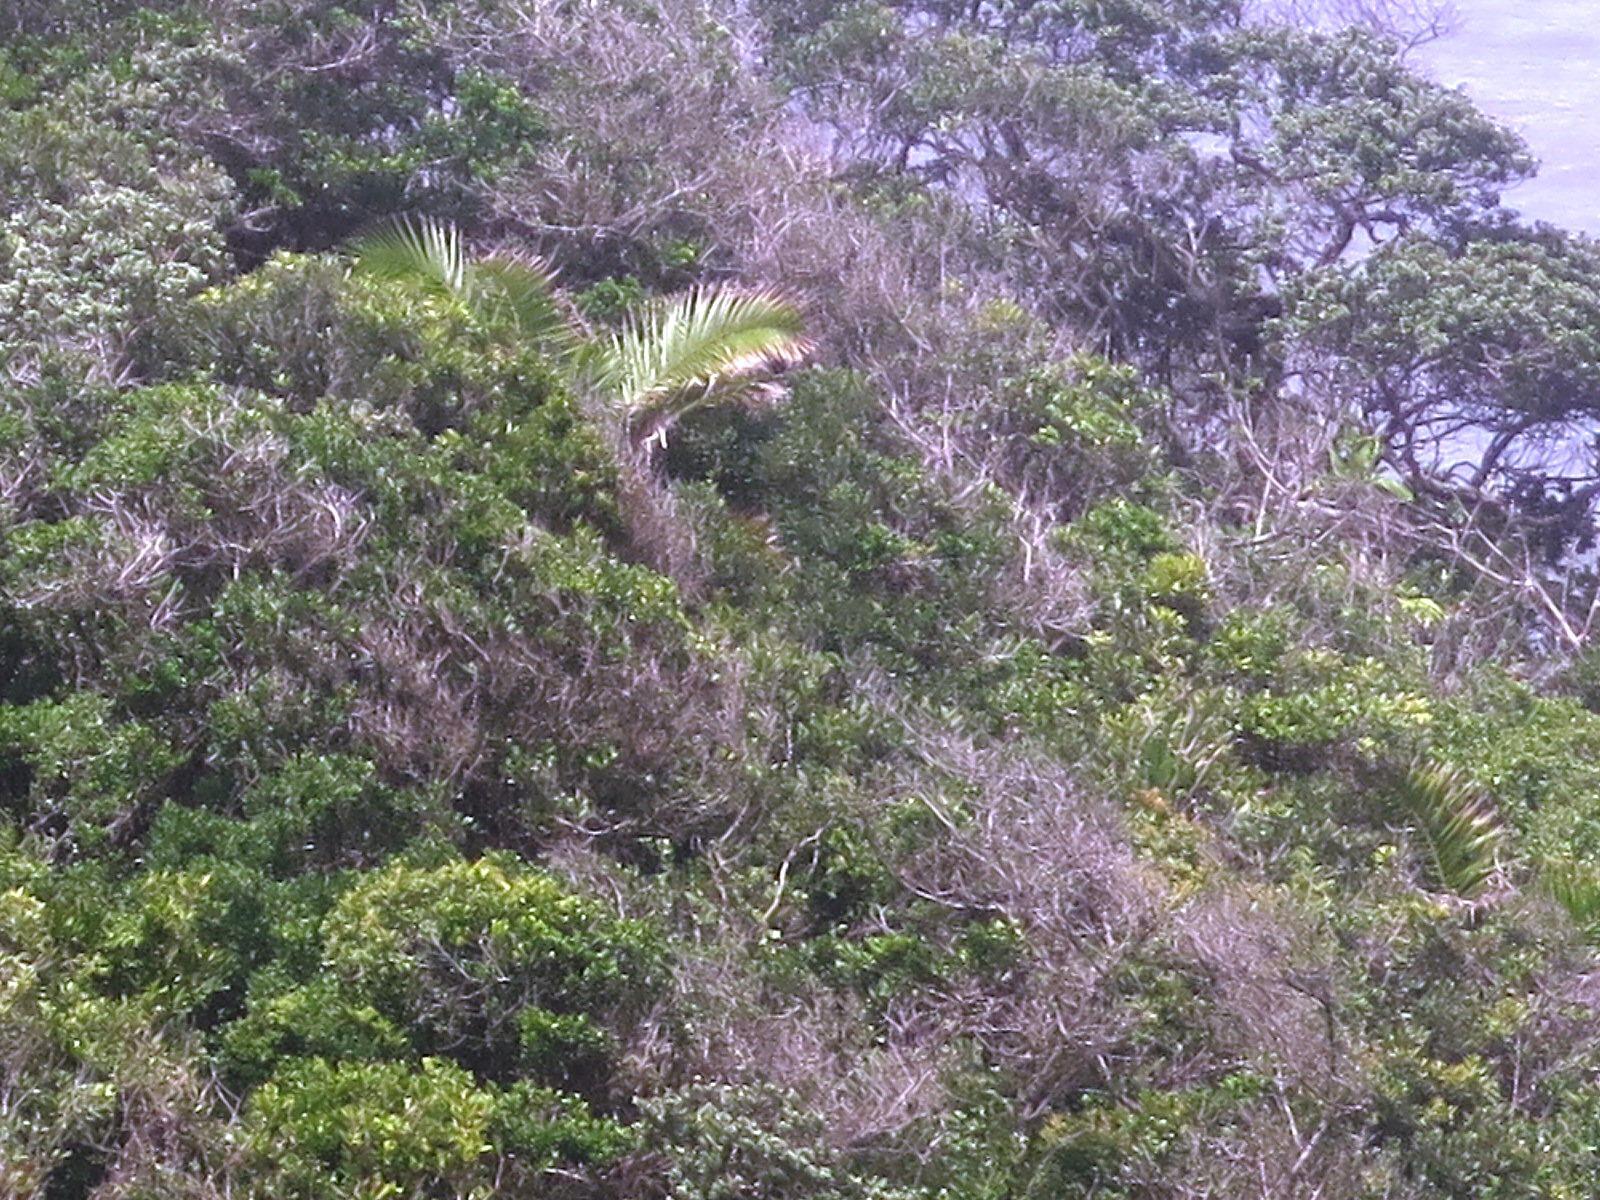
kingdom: Plantae
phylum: Tracheophyta
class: Liliopsida
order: Arecales
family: Arecaceae
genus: Phoenix
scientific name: Phoenix reclinata
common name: Senegal date palm
